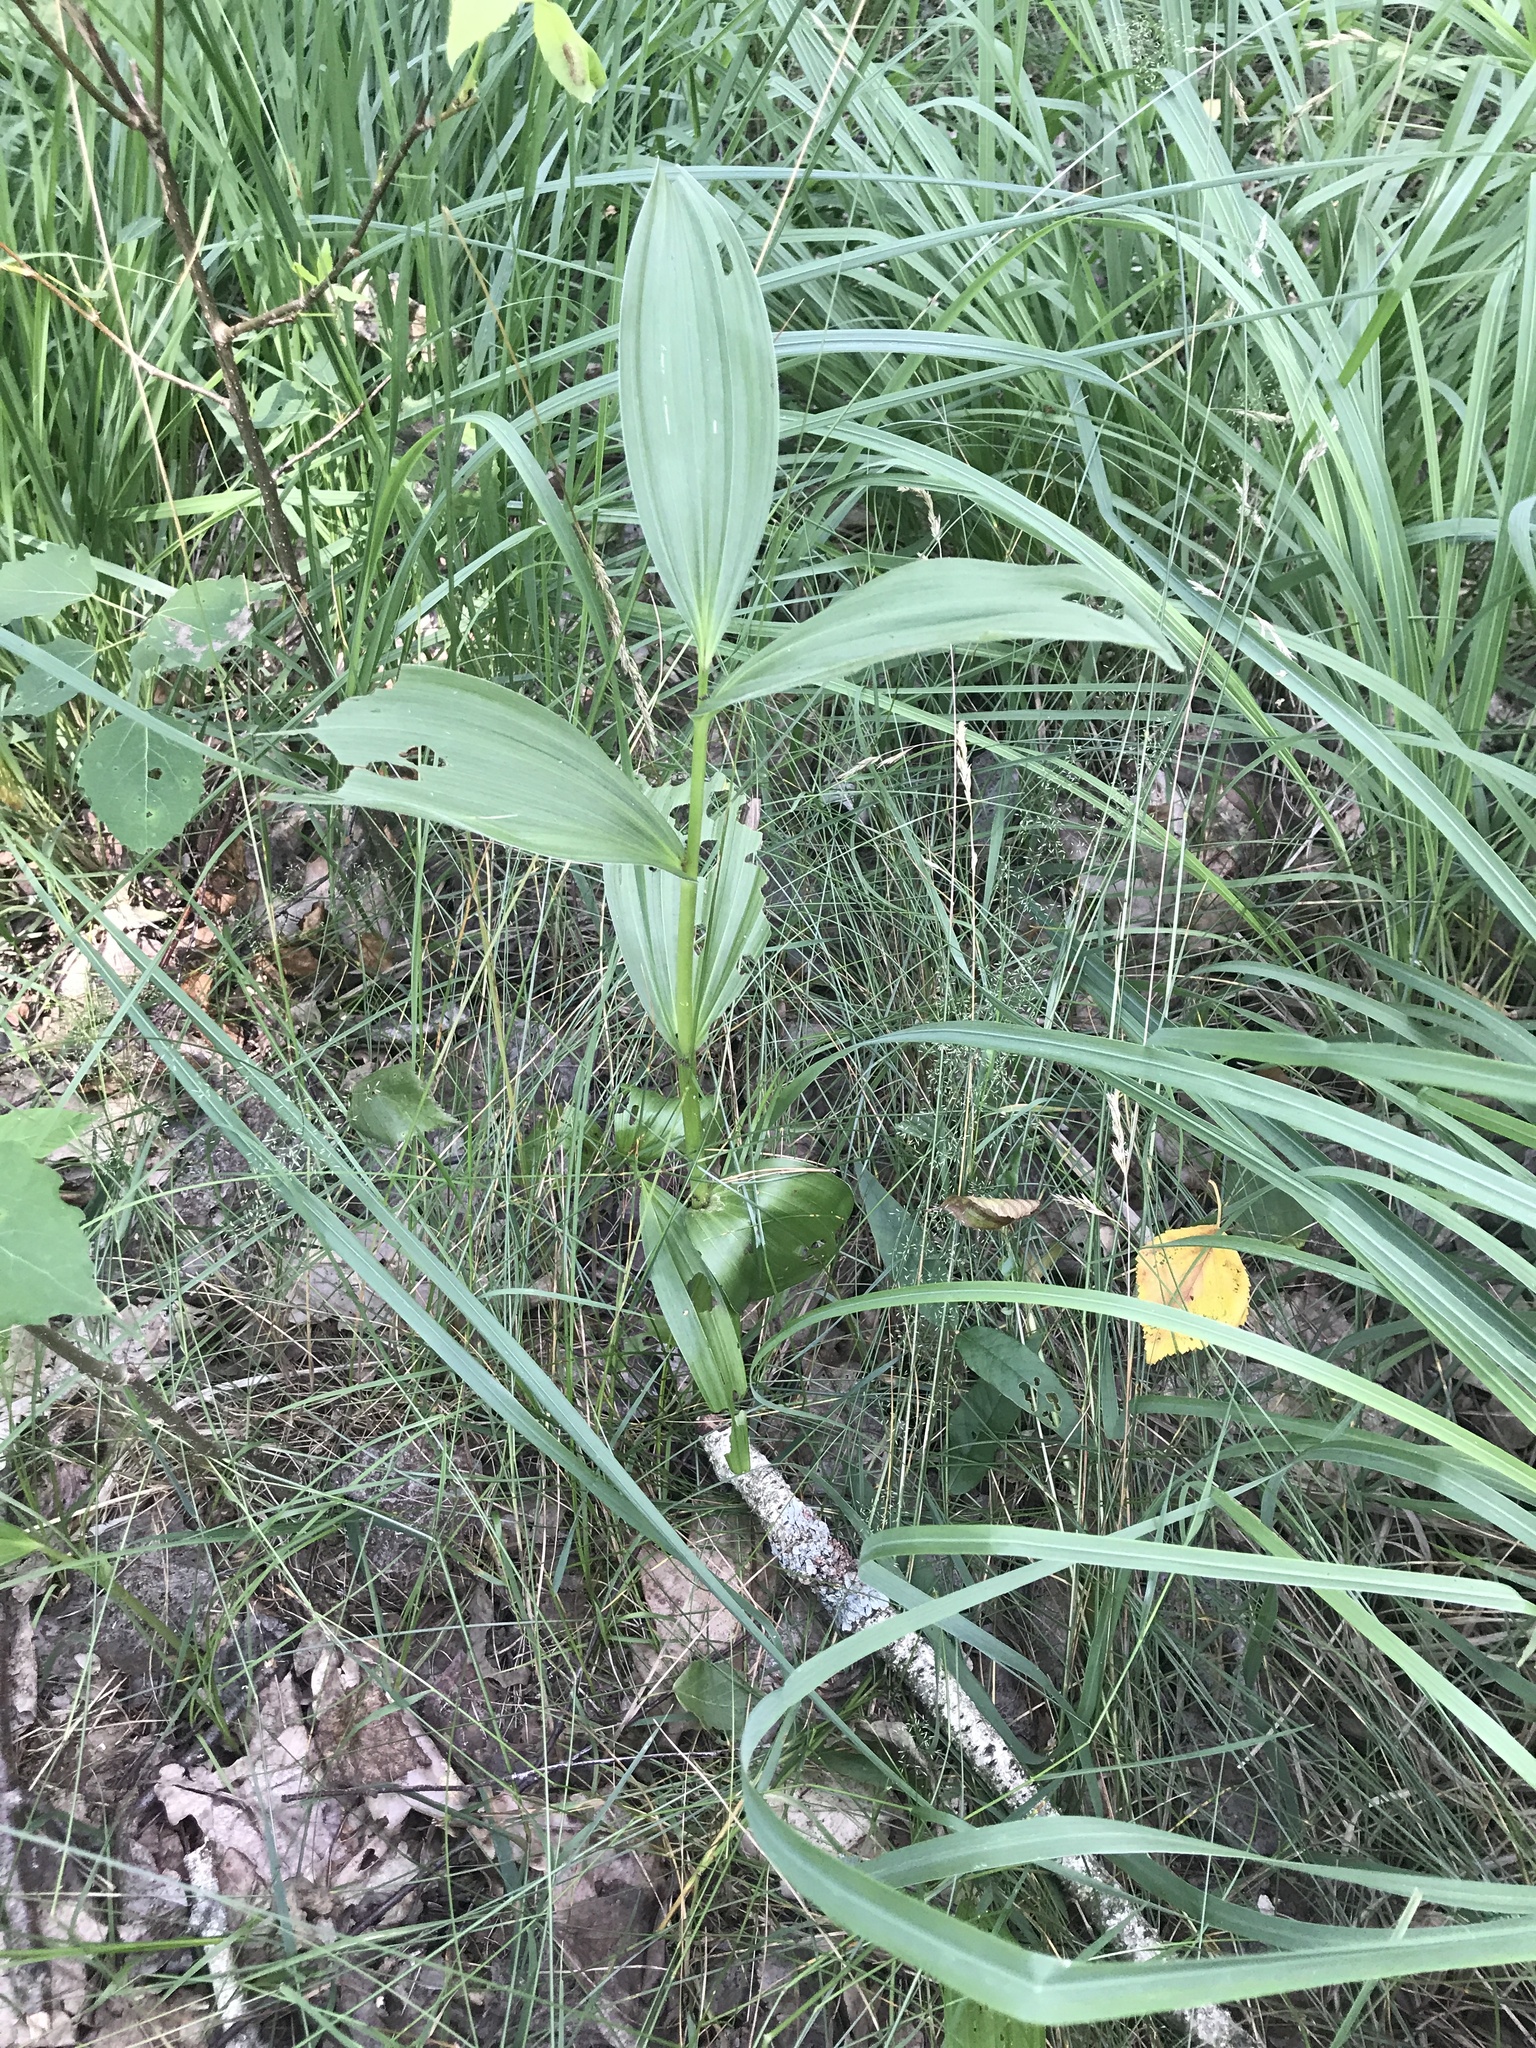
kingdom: Plantae
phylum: Tracheophyta
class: Liliopsida
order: Liliales
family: Melanthiaceae
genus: Veratrum
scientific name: Veratrum lobelianum
